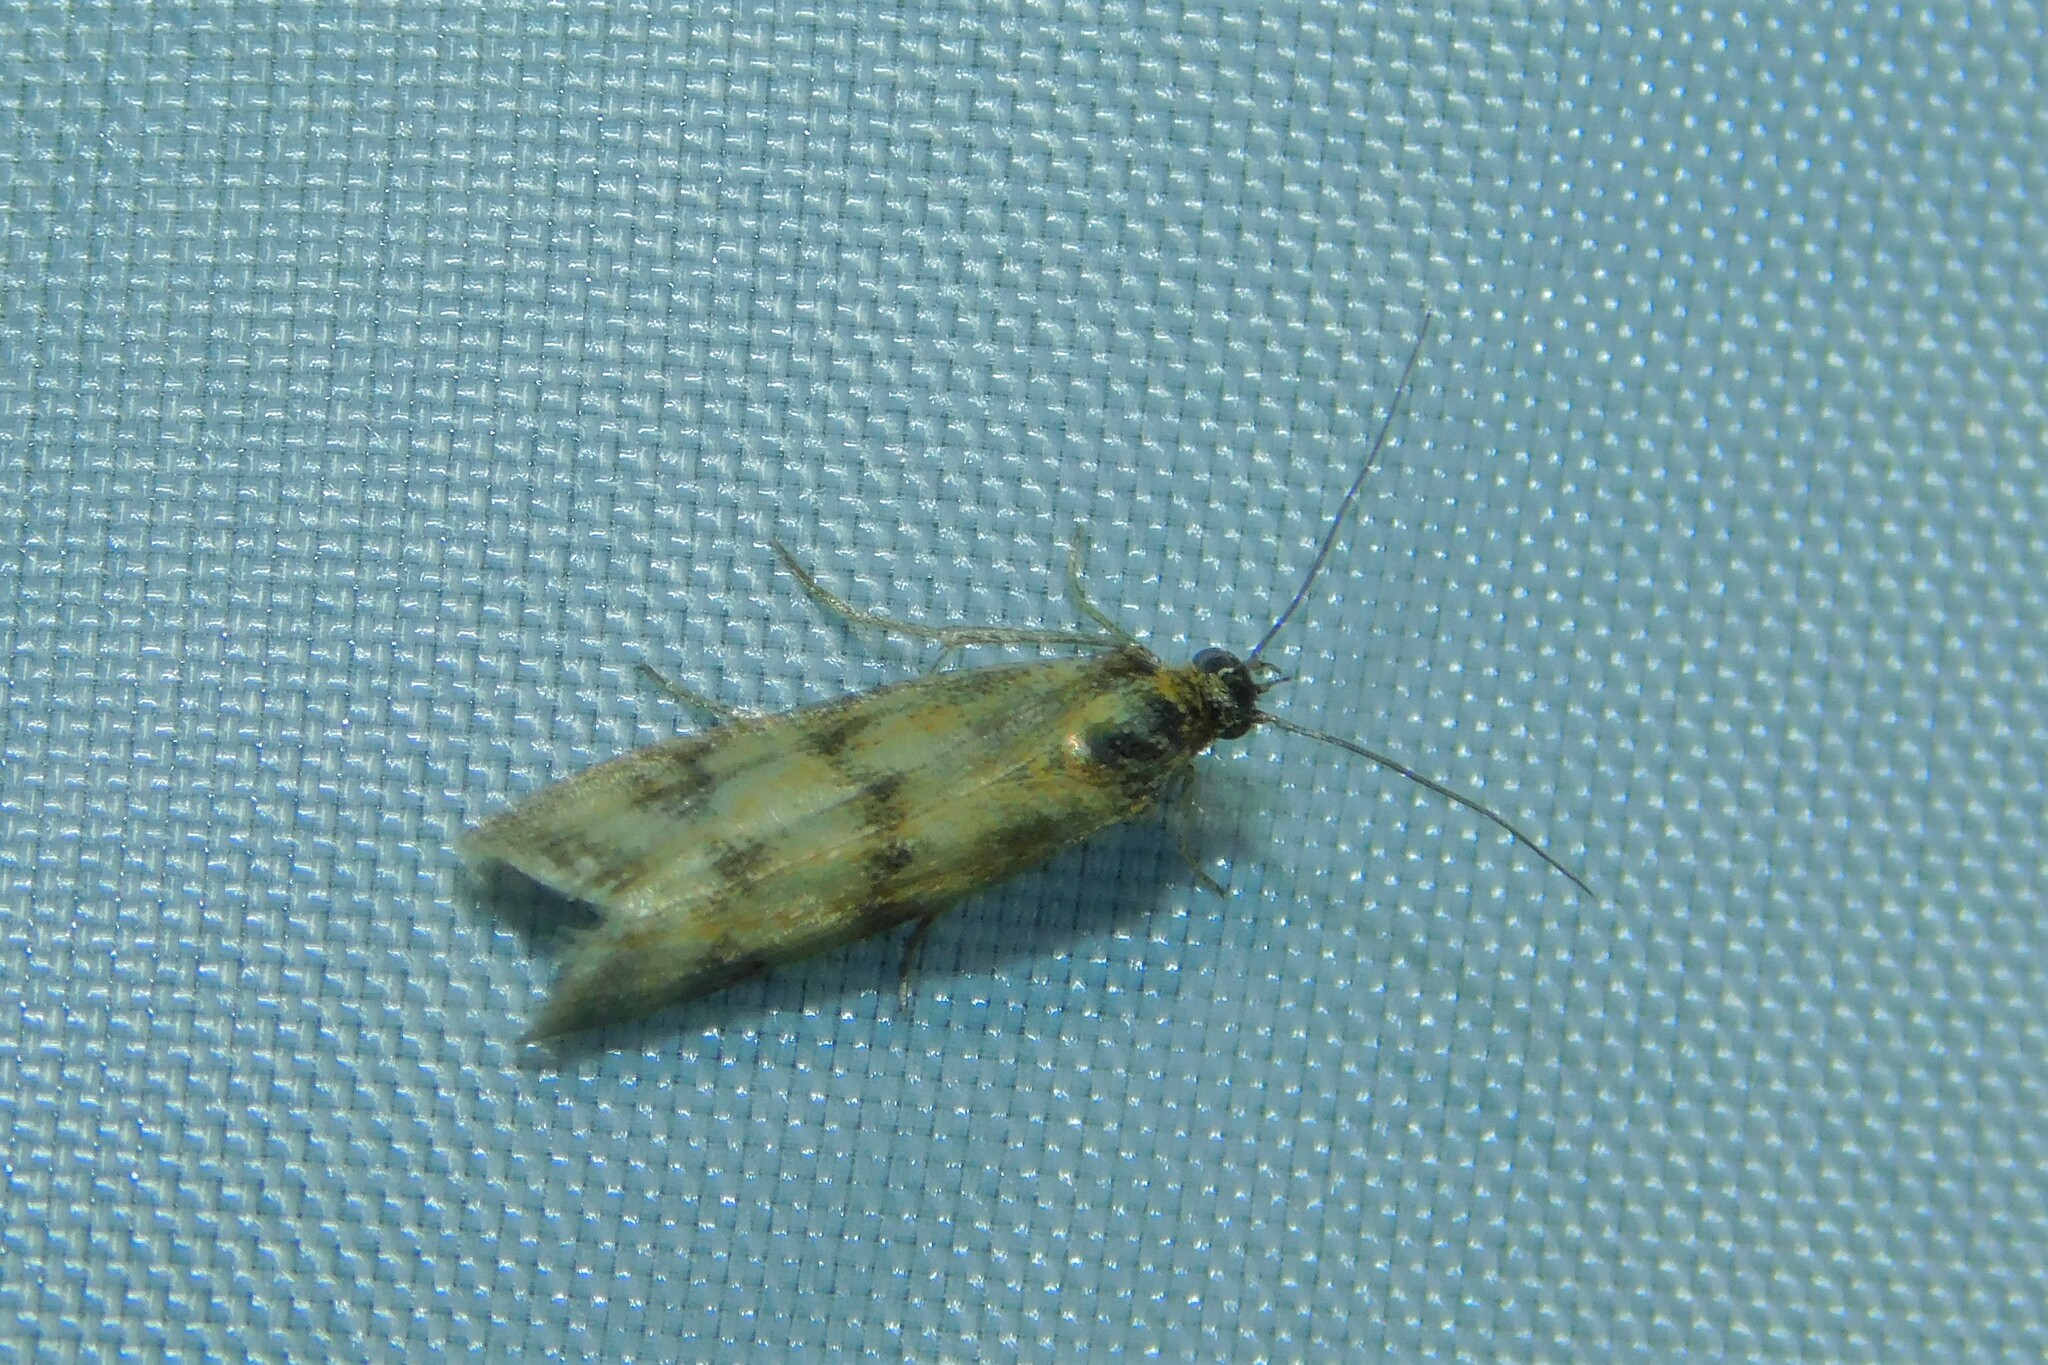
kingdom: Animalia
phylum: Arthropoda
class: Insecta
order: Lepidoptera
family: Pyralidae
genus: Homoeosoma
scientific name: Homoeosoma sinuella
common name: Twin-barred knot-horn
